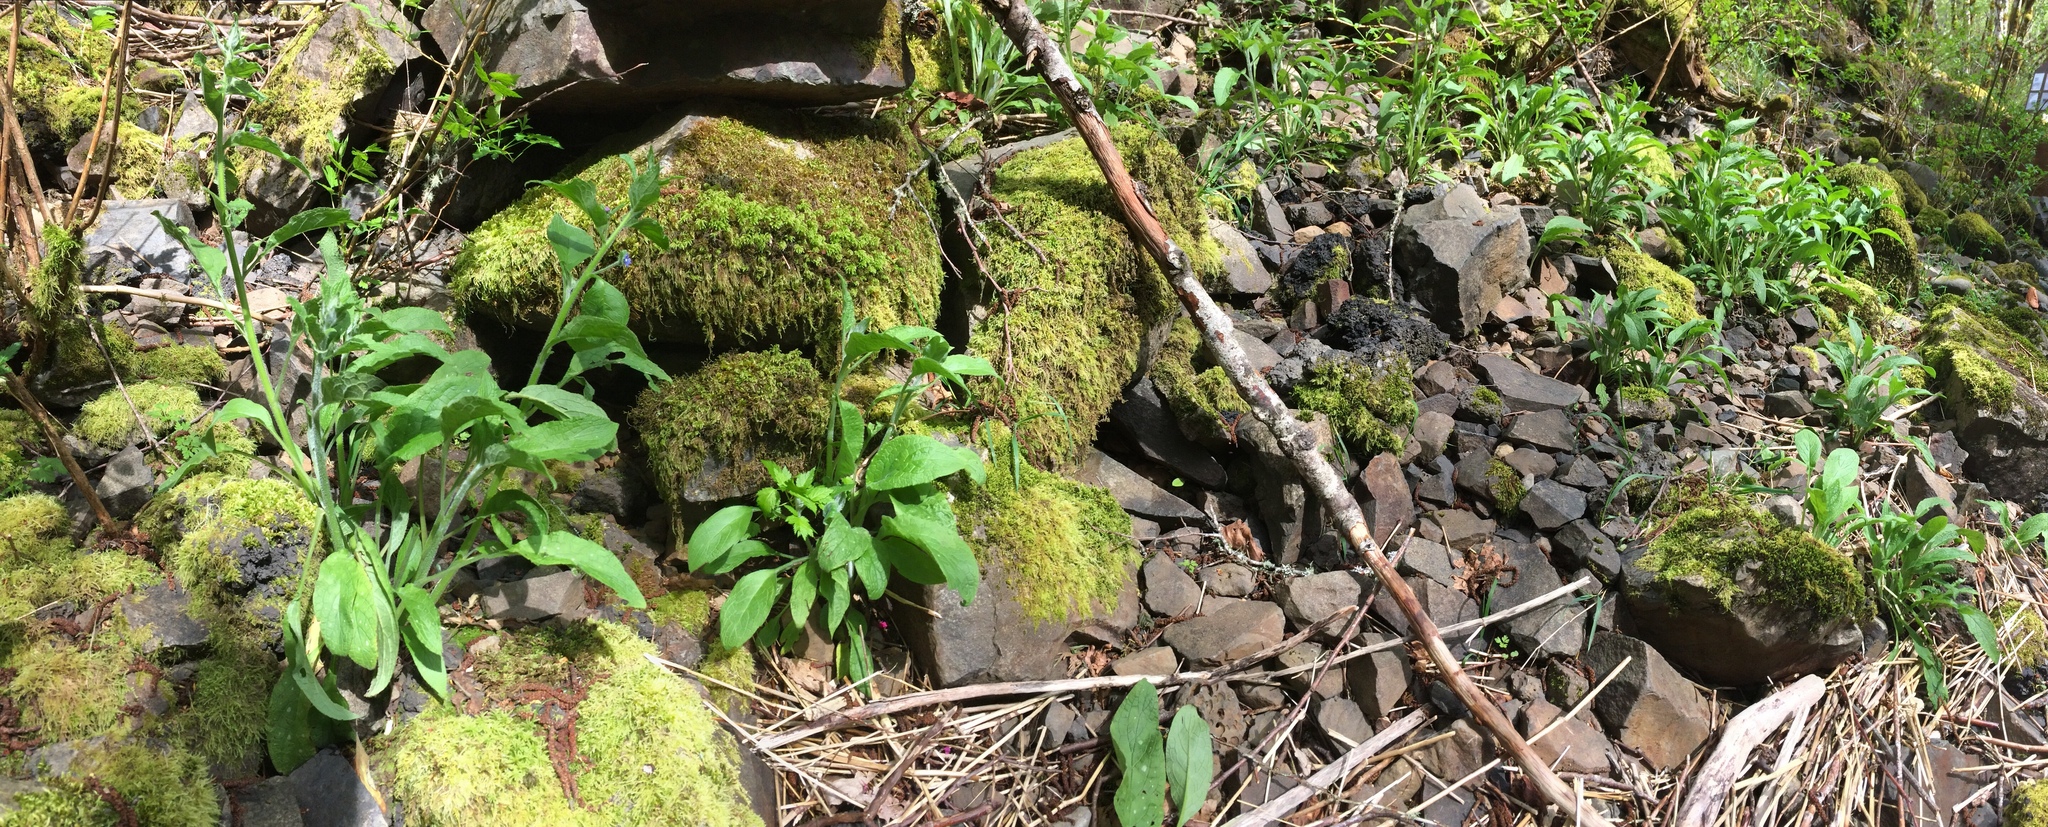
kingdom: Plantae
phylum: Tracheophyta
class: Magnoliopsida
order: Boraginales
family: Boraginaceae
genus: Pentaglottis
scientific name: Pentaglottis sempervirens
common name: Green alkanet
